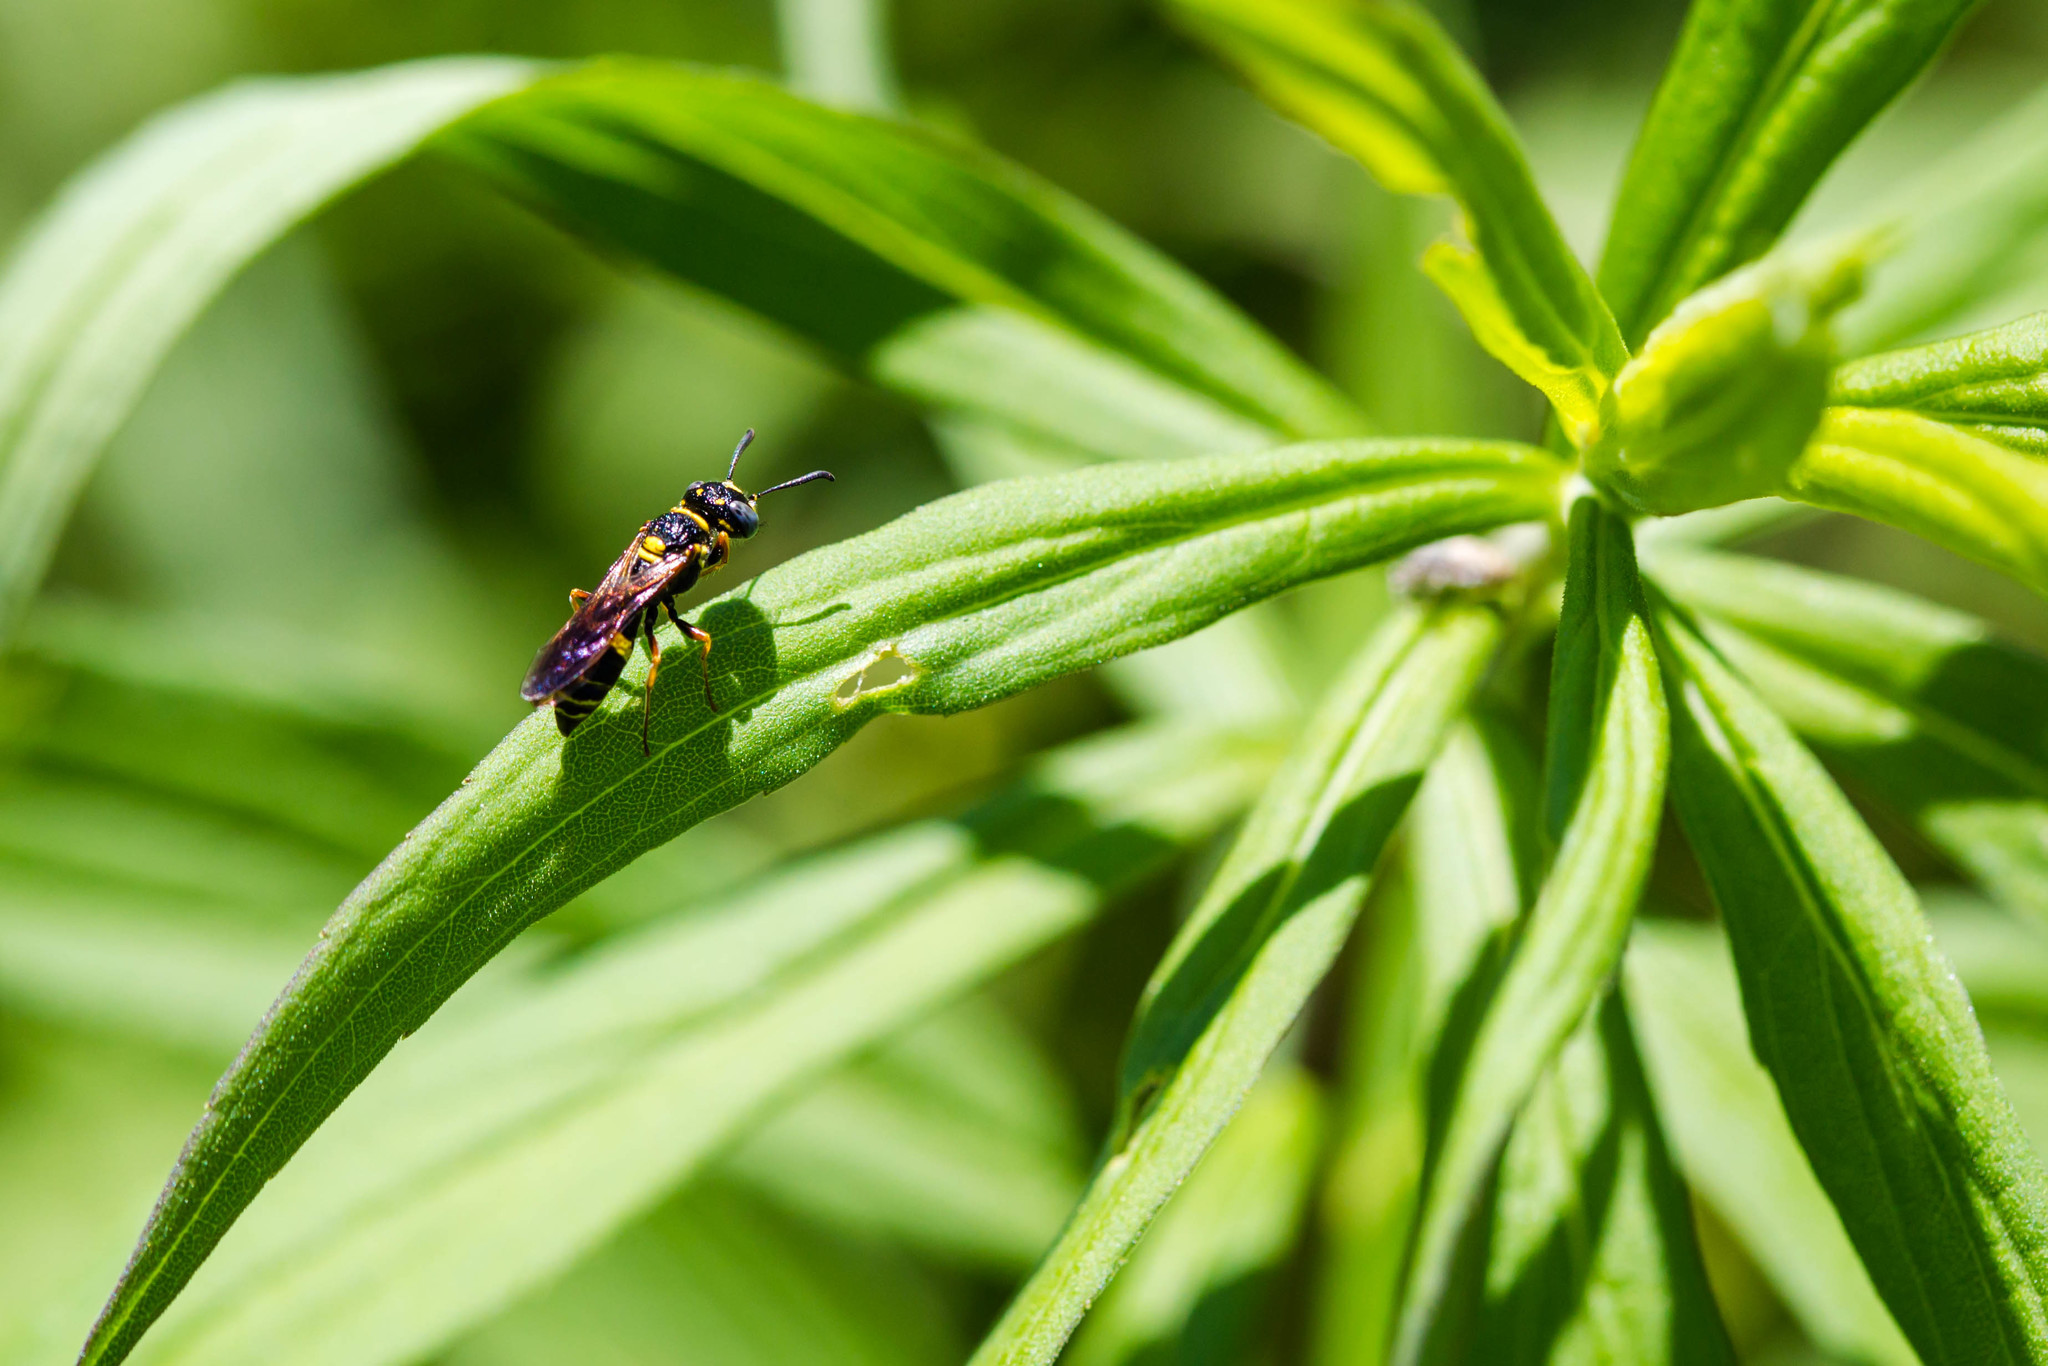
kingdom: Animalia
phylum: Arthropoda
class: Insecta
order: Hymenoptera
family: Crabronidae
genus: Philanthus
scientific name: Philanthus gibbosus
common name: Humped beewolf
